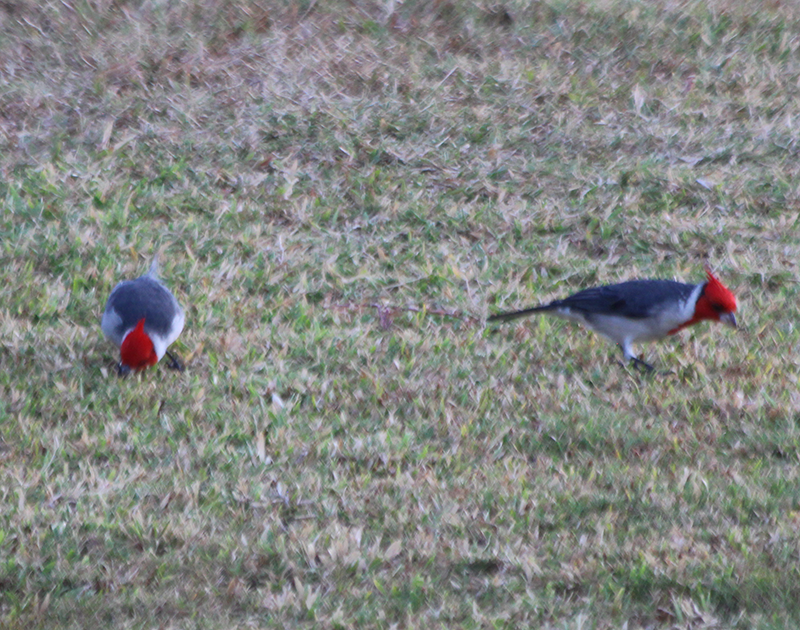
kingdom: Animalia
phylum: Chordata
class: Aves
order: Passeriformes
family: Thraupidae
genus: Paroaria
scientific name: Paroaria coronata
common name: Red-crested cardinal
